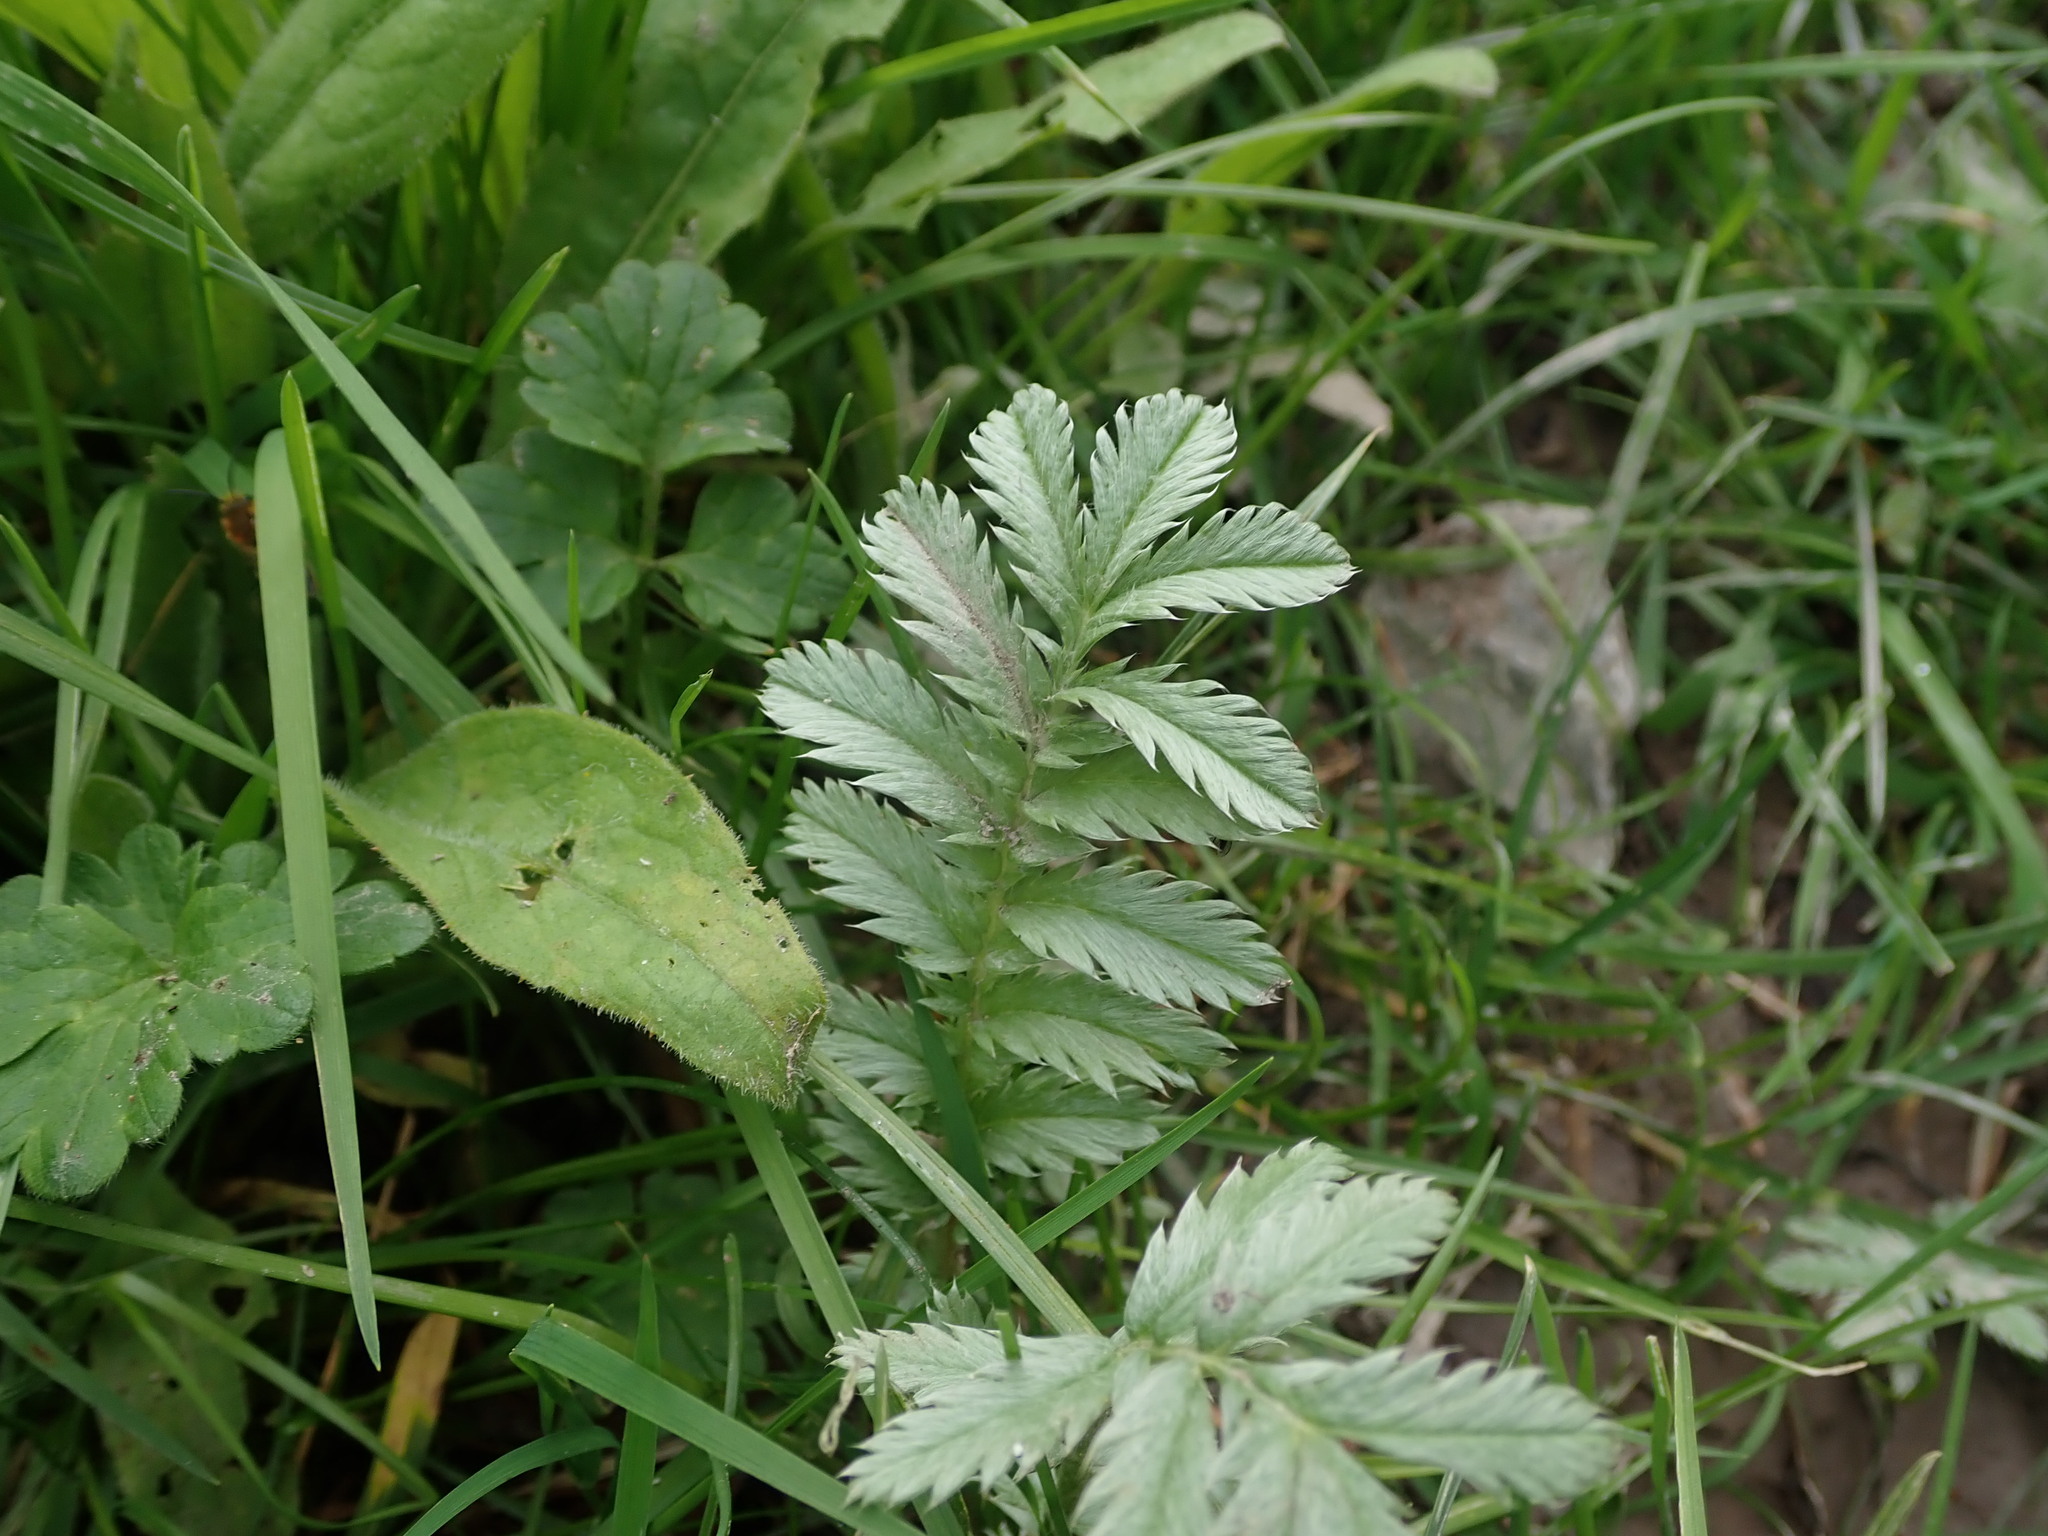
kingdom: Plantae
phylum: Tracheophyta
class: Magnoliopsida
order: Rosales
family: Rosaceae
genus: Argentina
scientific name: Argentina anserina
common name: Common silverweed
